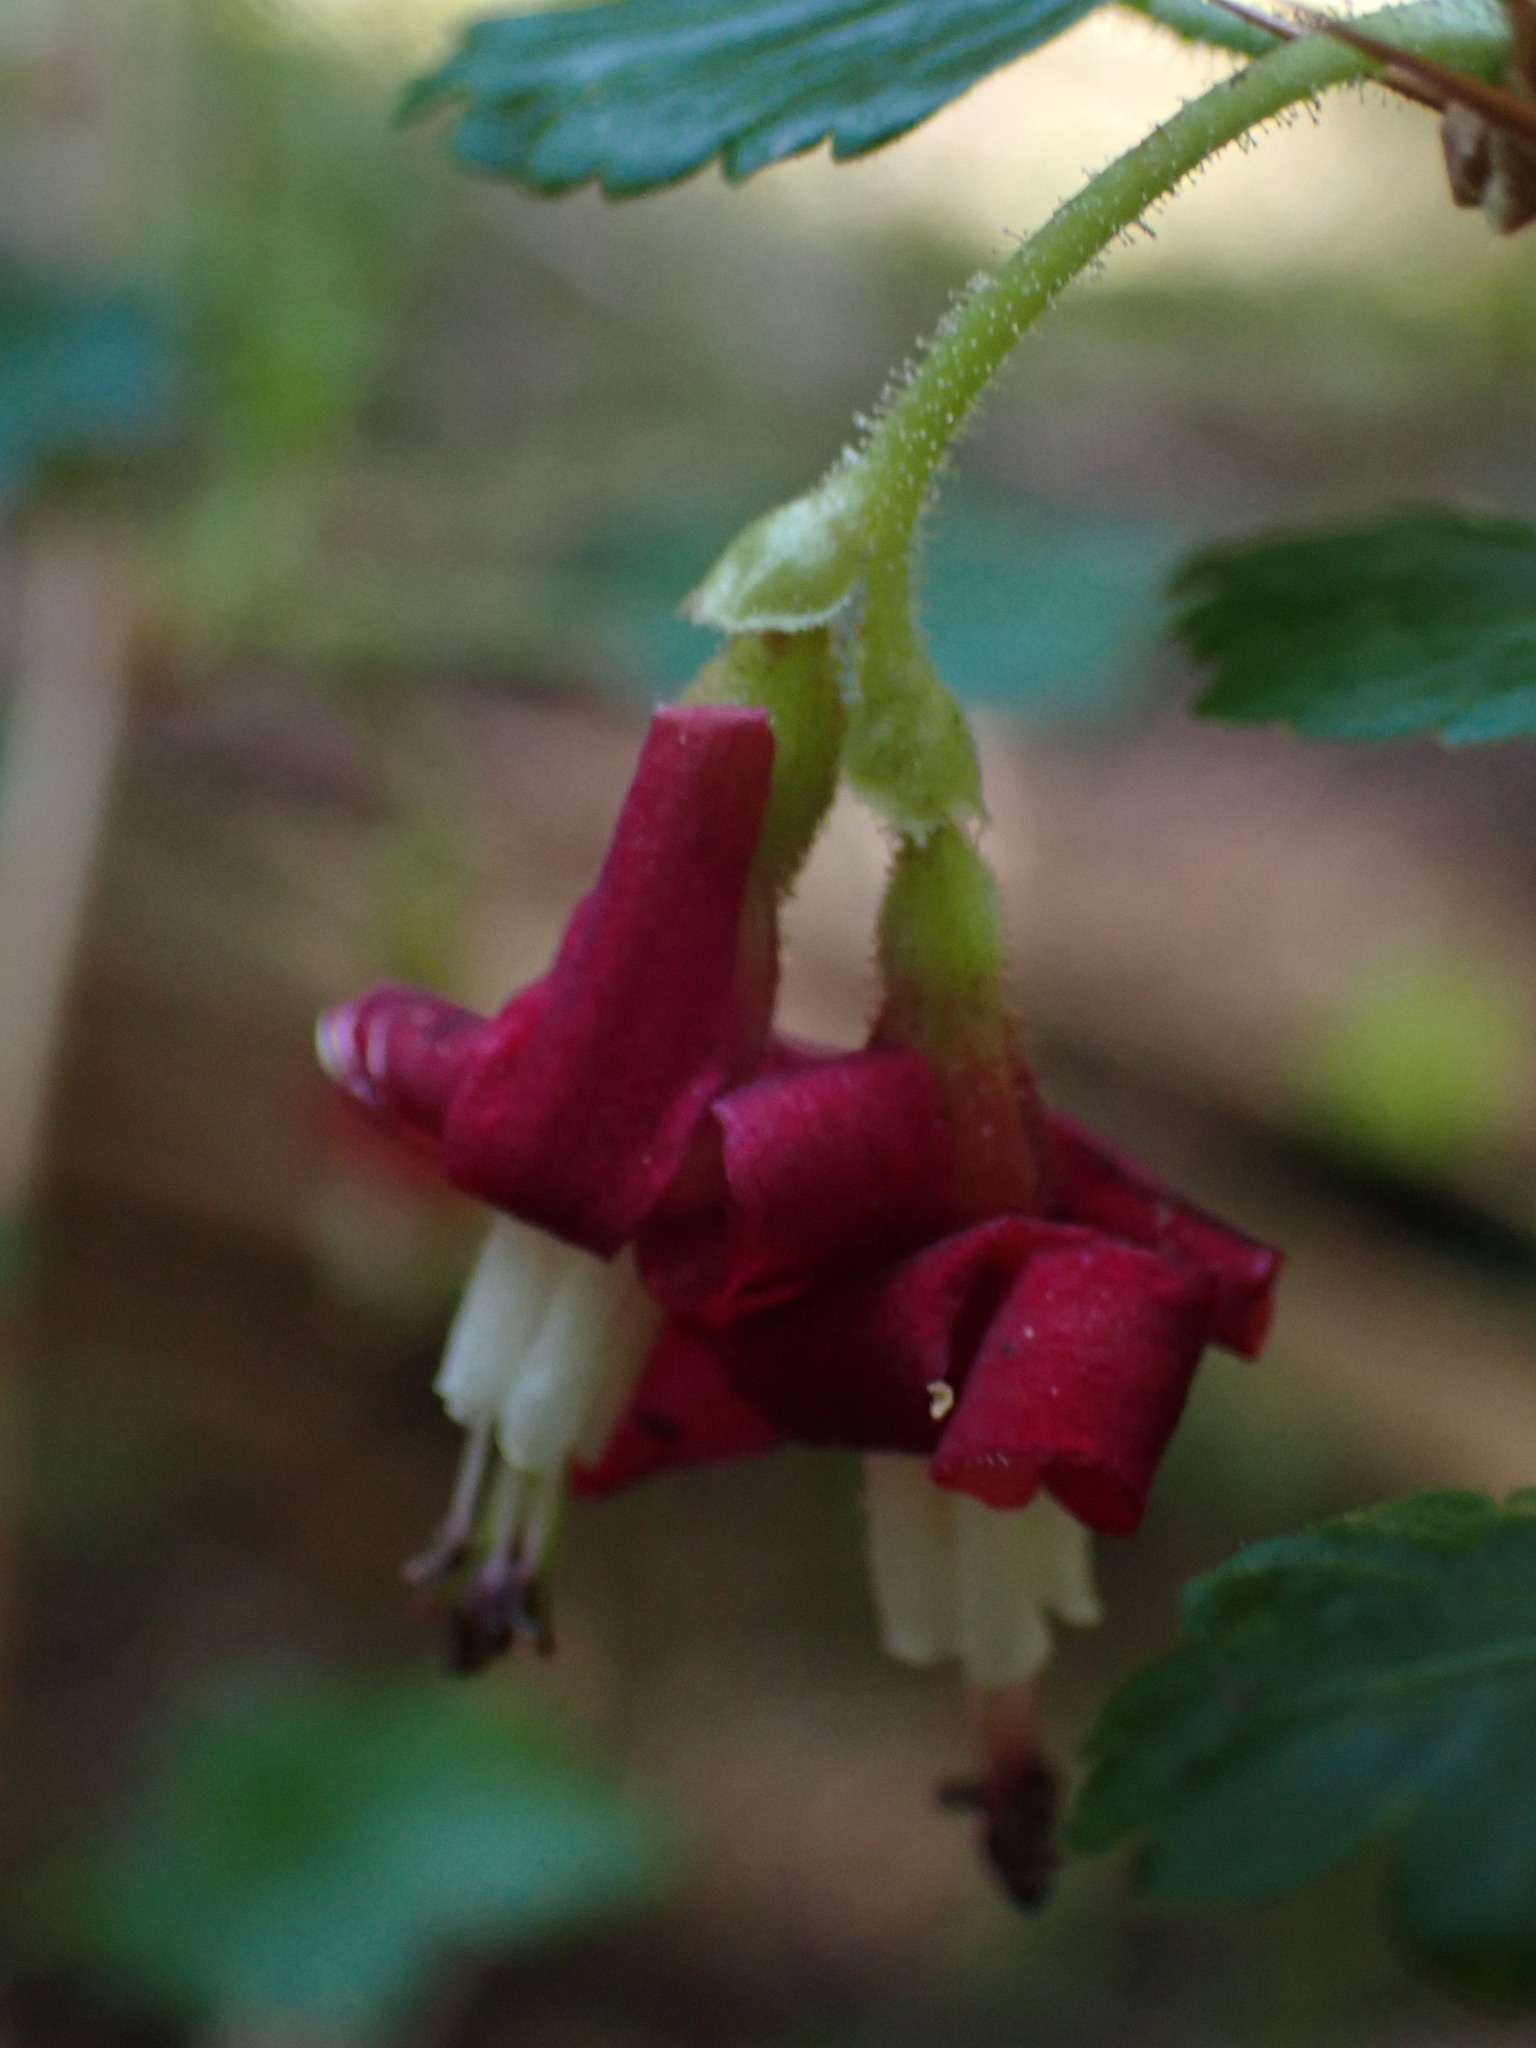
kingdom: Plantae
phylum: Tracheophyta
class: Magnoliopsida
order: Saxifragales
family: Grossulariaceae
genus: Ribes
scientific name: Ribes lobbii
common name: Gummy gooseberry
